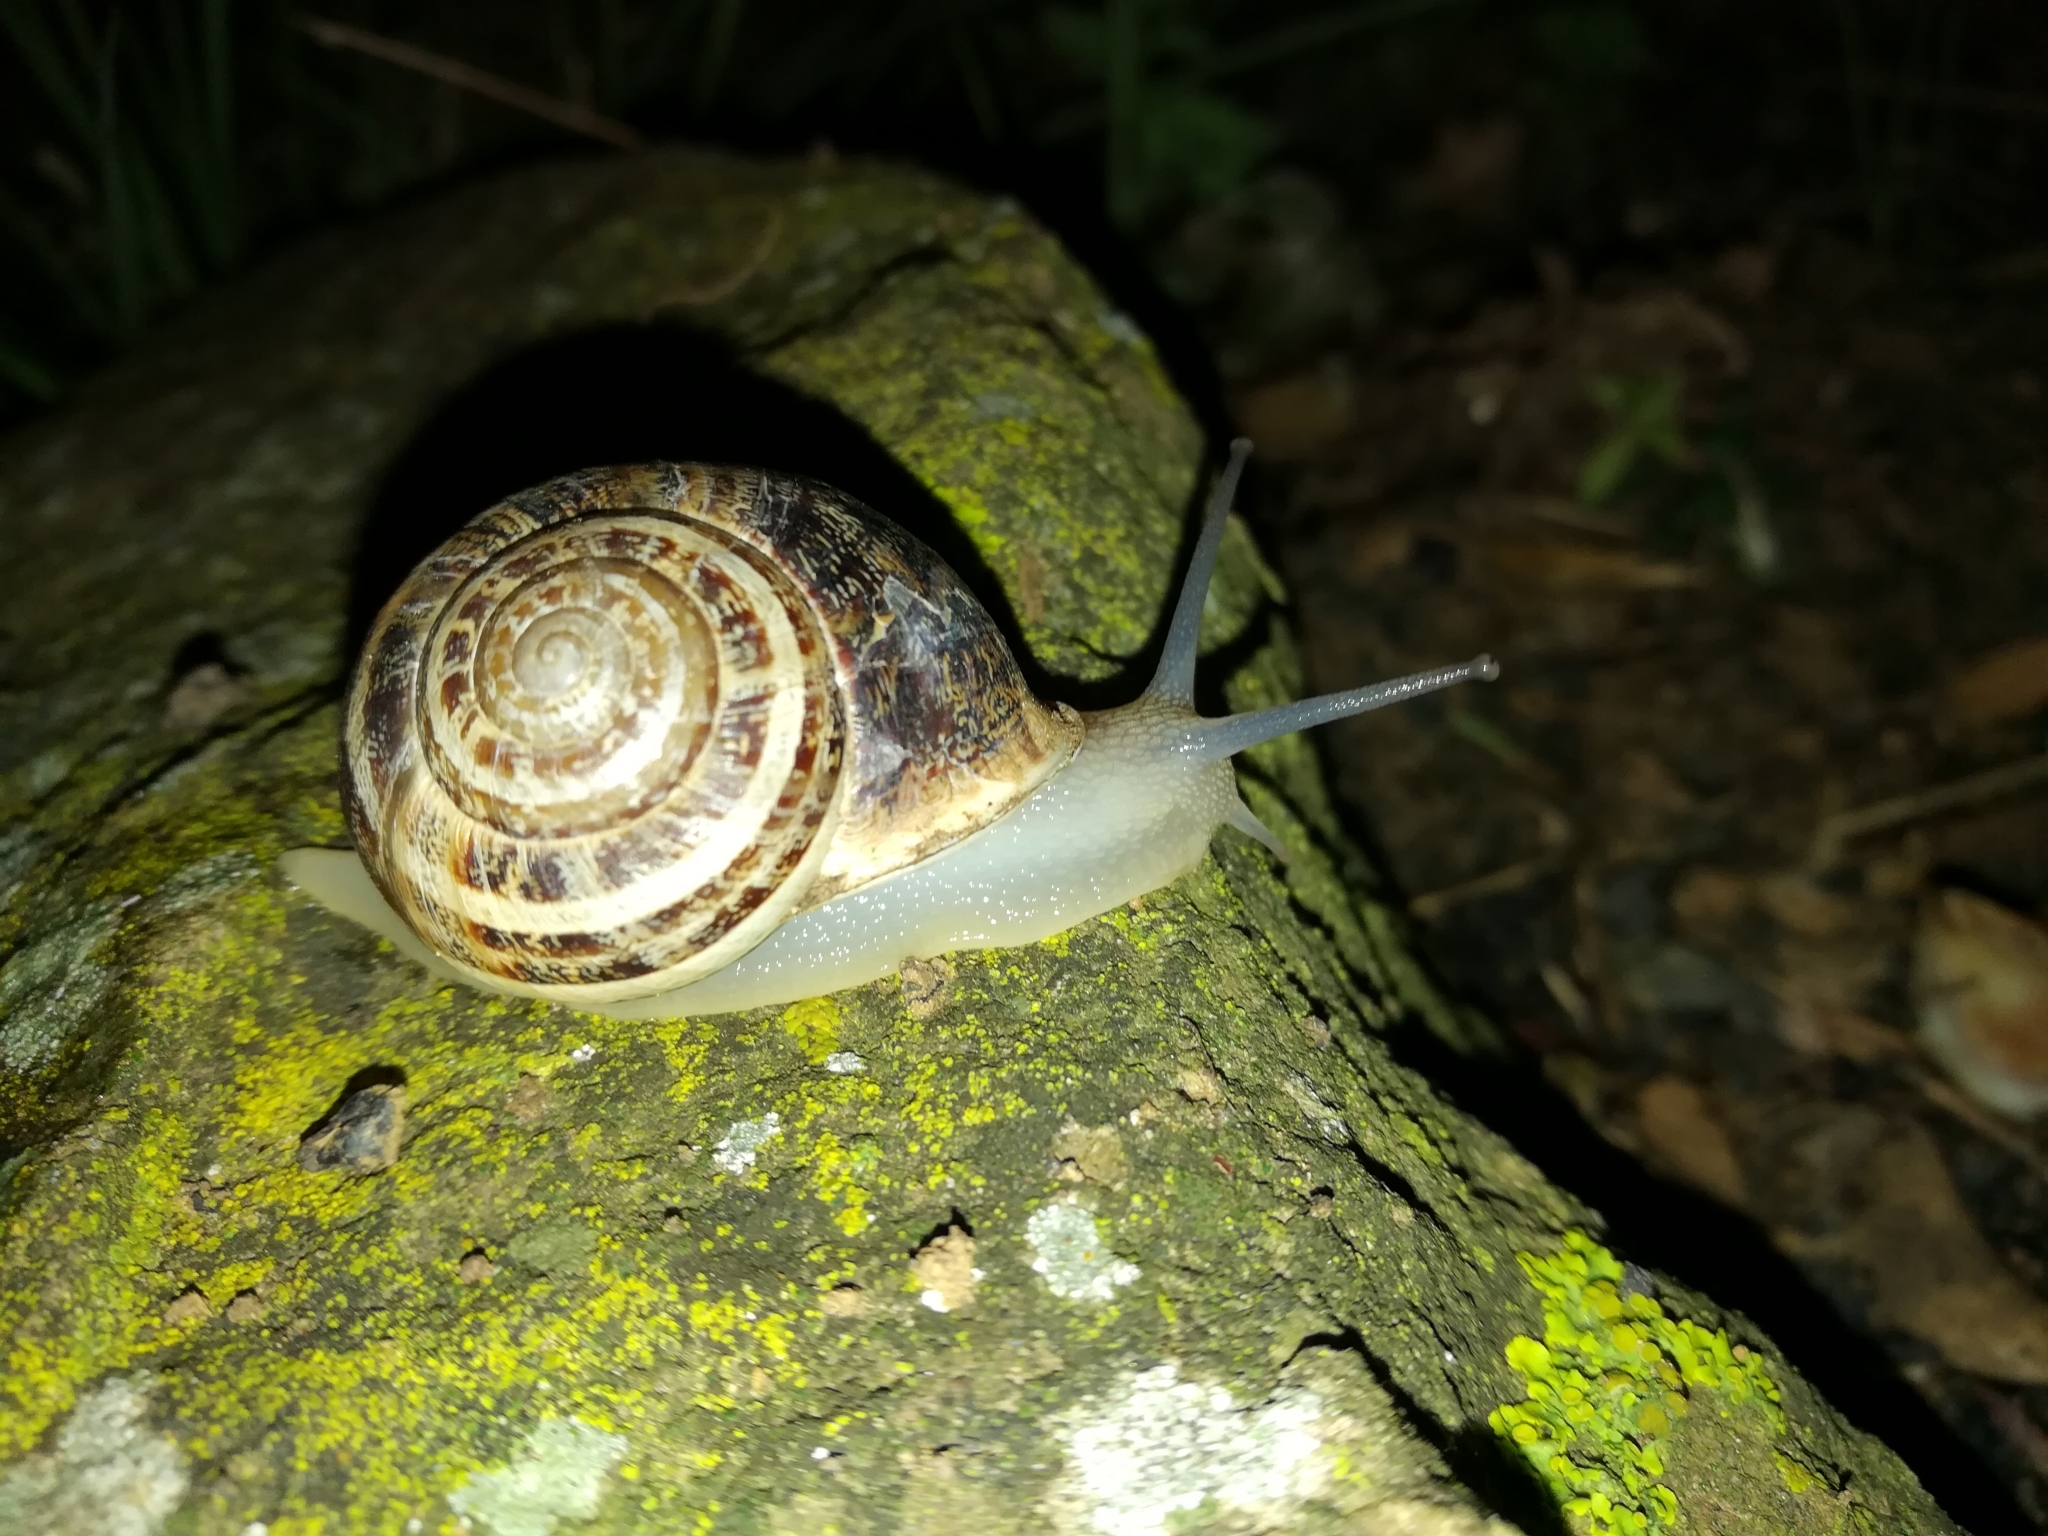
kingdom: Animalia
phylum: Mollusca
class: Gastropoda
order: Stylommatophora
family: Helicidae
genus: Eobania
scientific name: Eobania vermiculata
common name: Chocolateband snail
